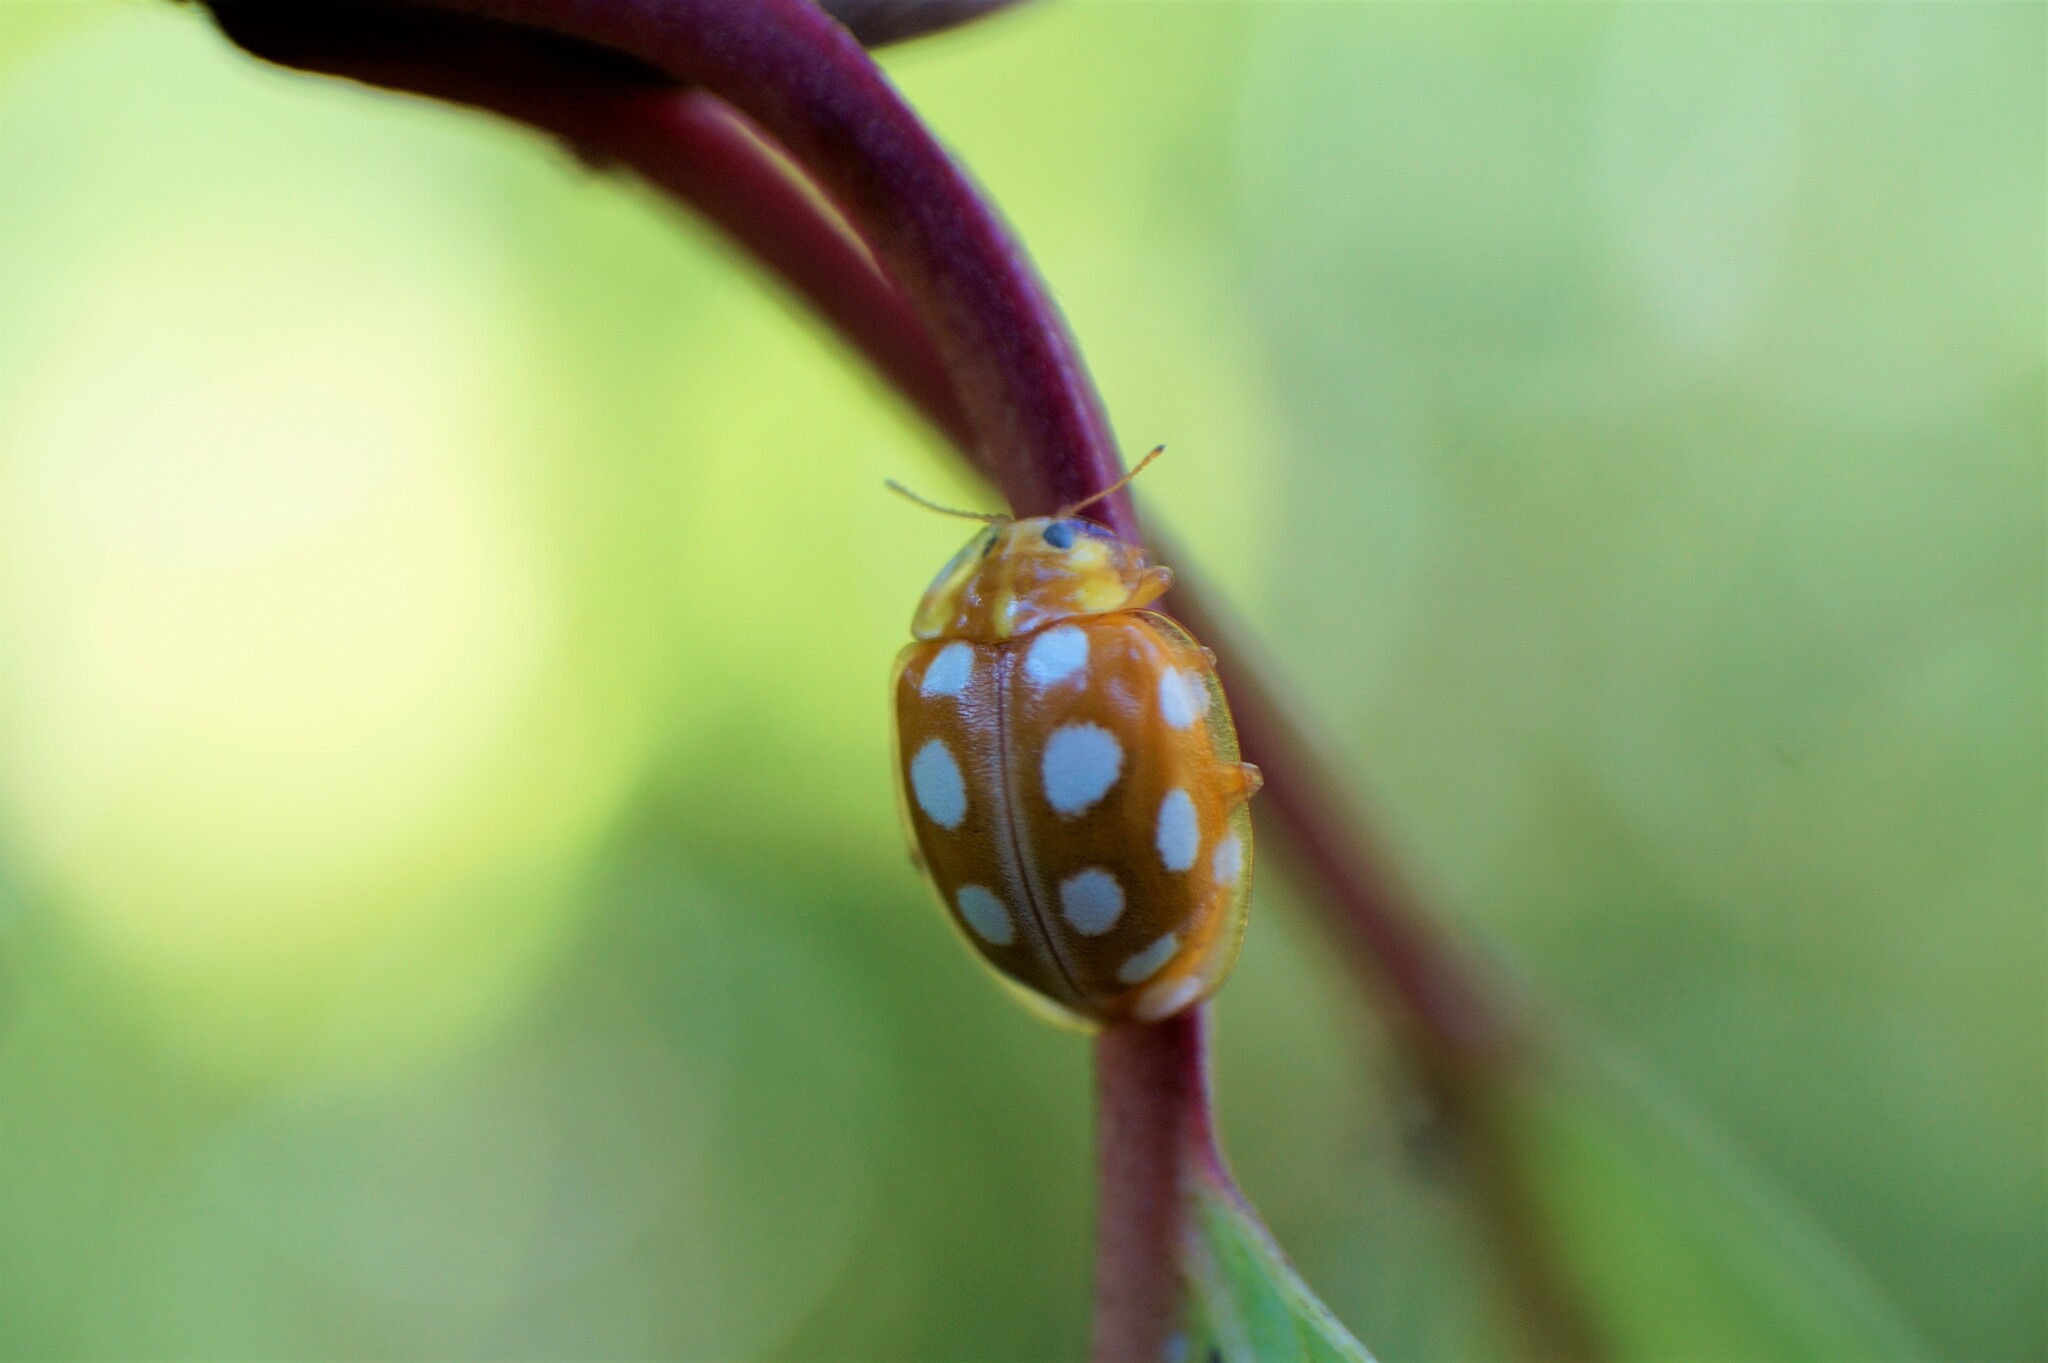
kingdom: Animalia
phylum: Arthropoda
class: Insecta
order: Coleoptera
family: Coccinellidae
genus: Halyzia
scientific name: Halyzia sedecimguttata
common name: Orange ladybird
